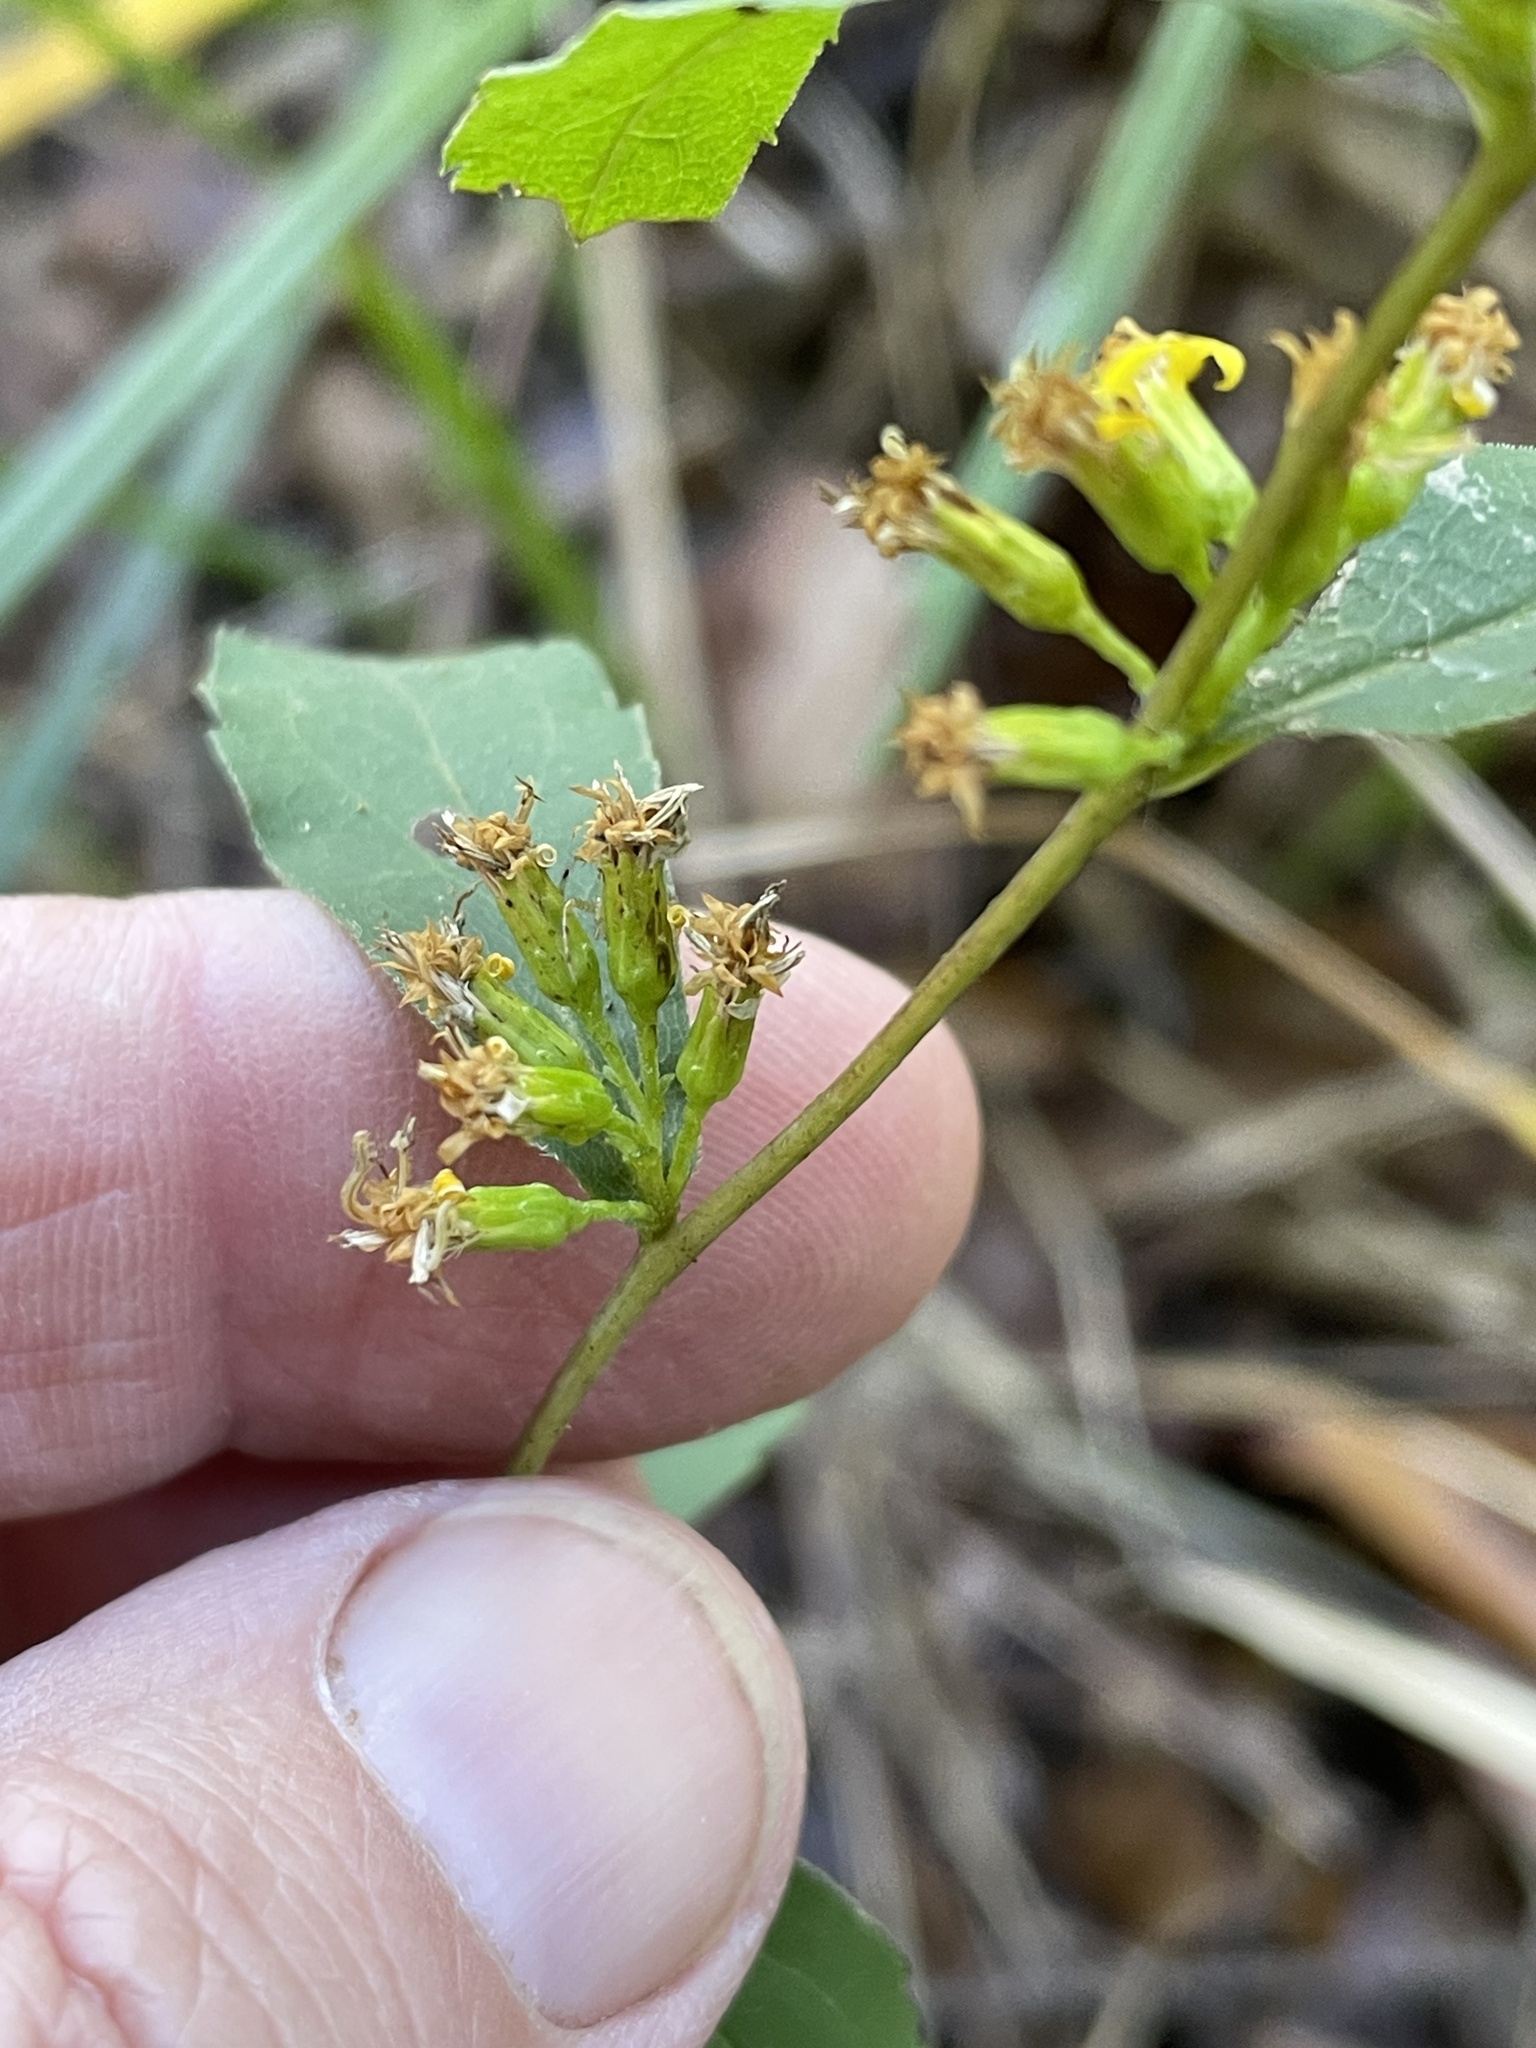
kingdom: Plantae
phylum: Tracheophyta
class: Magnoliopsida
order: Asterales
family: Asteraceae
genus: Solidago
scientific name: Solidago caesia
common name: Woodland goldenrod
